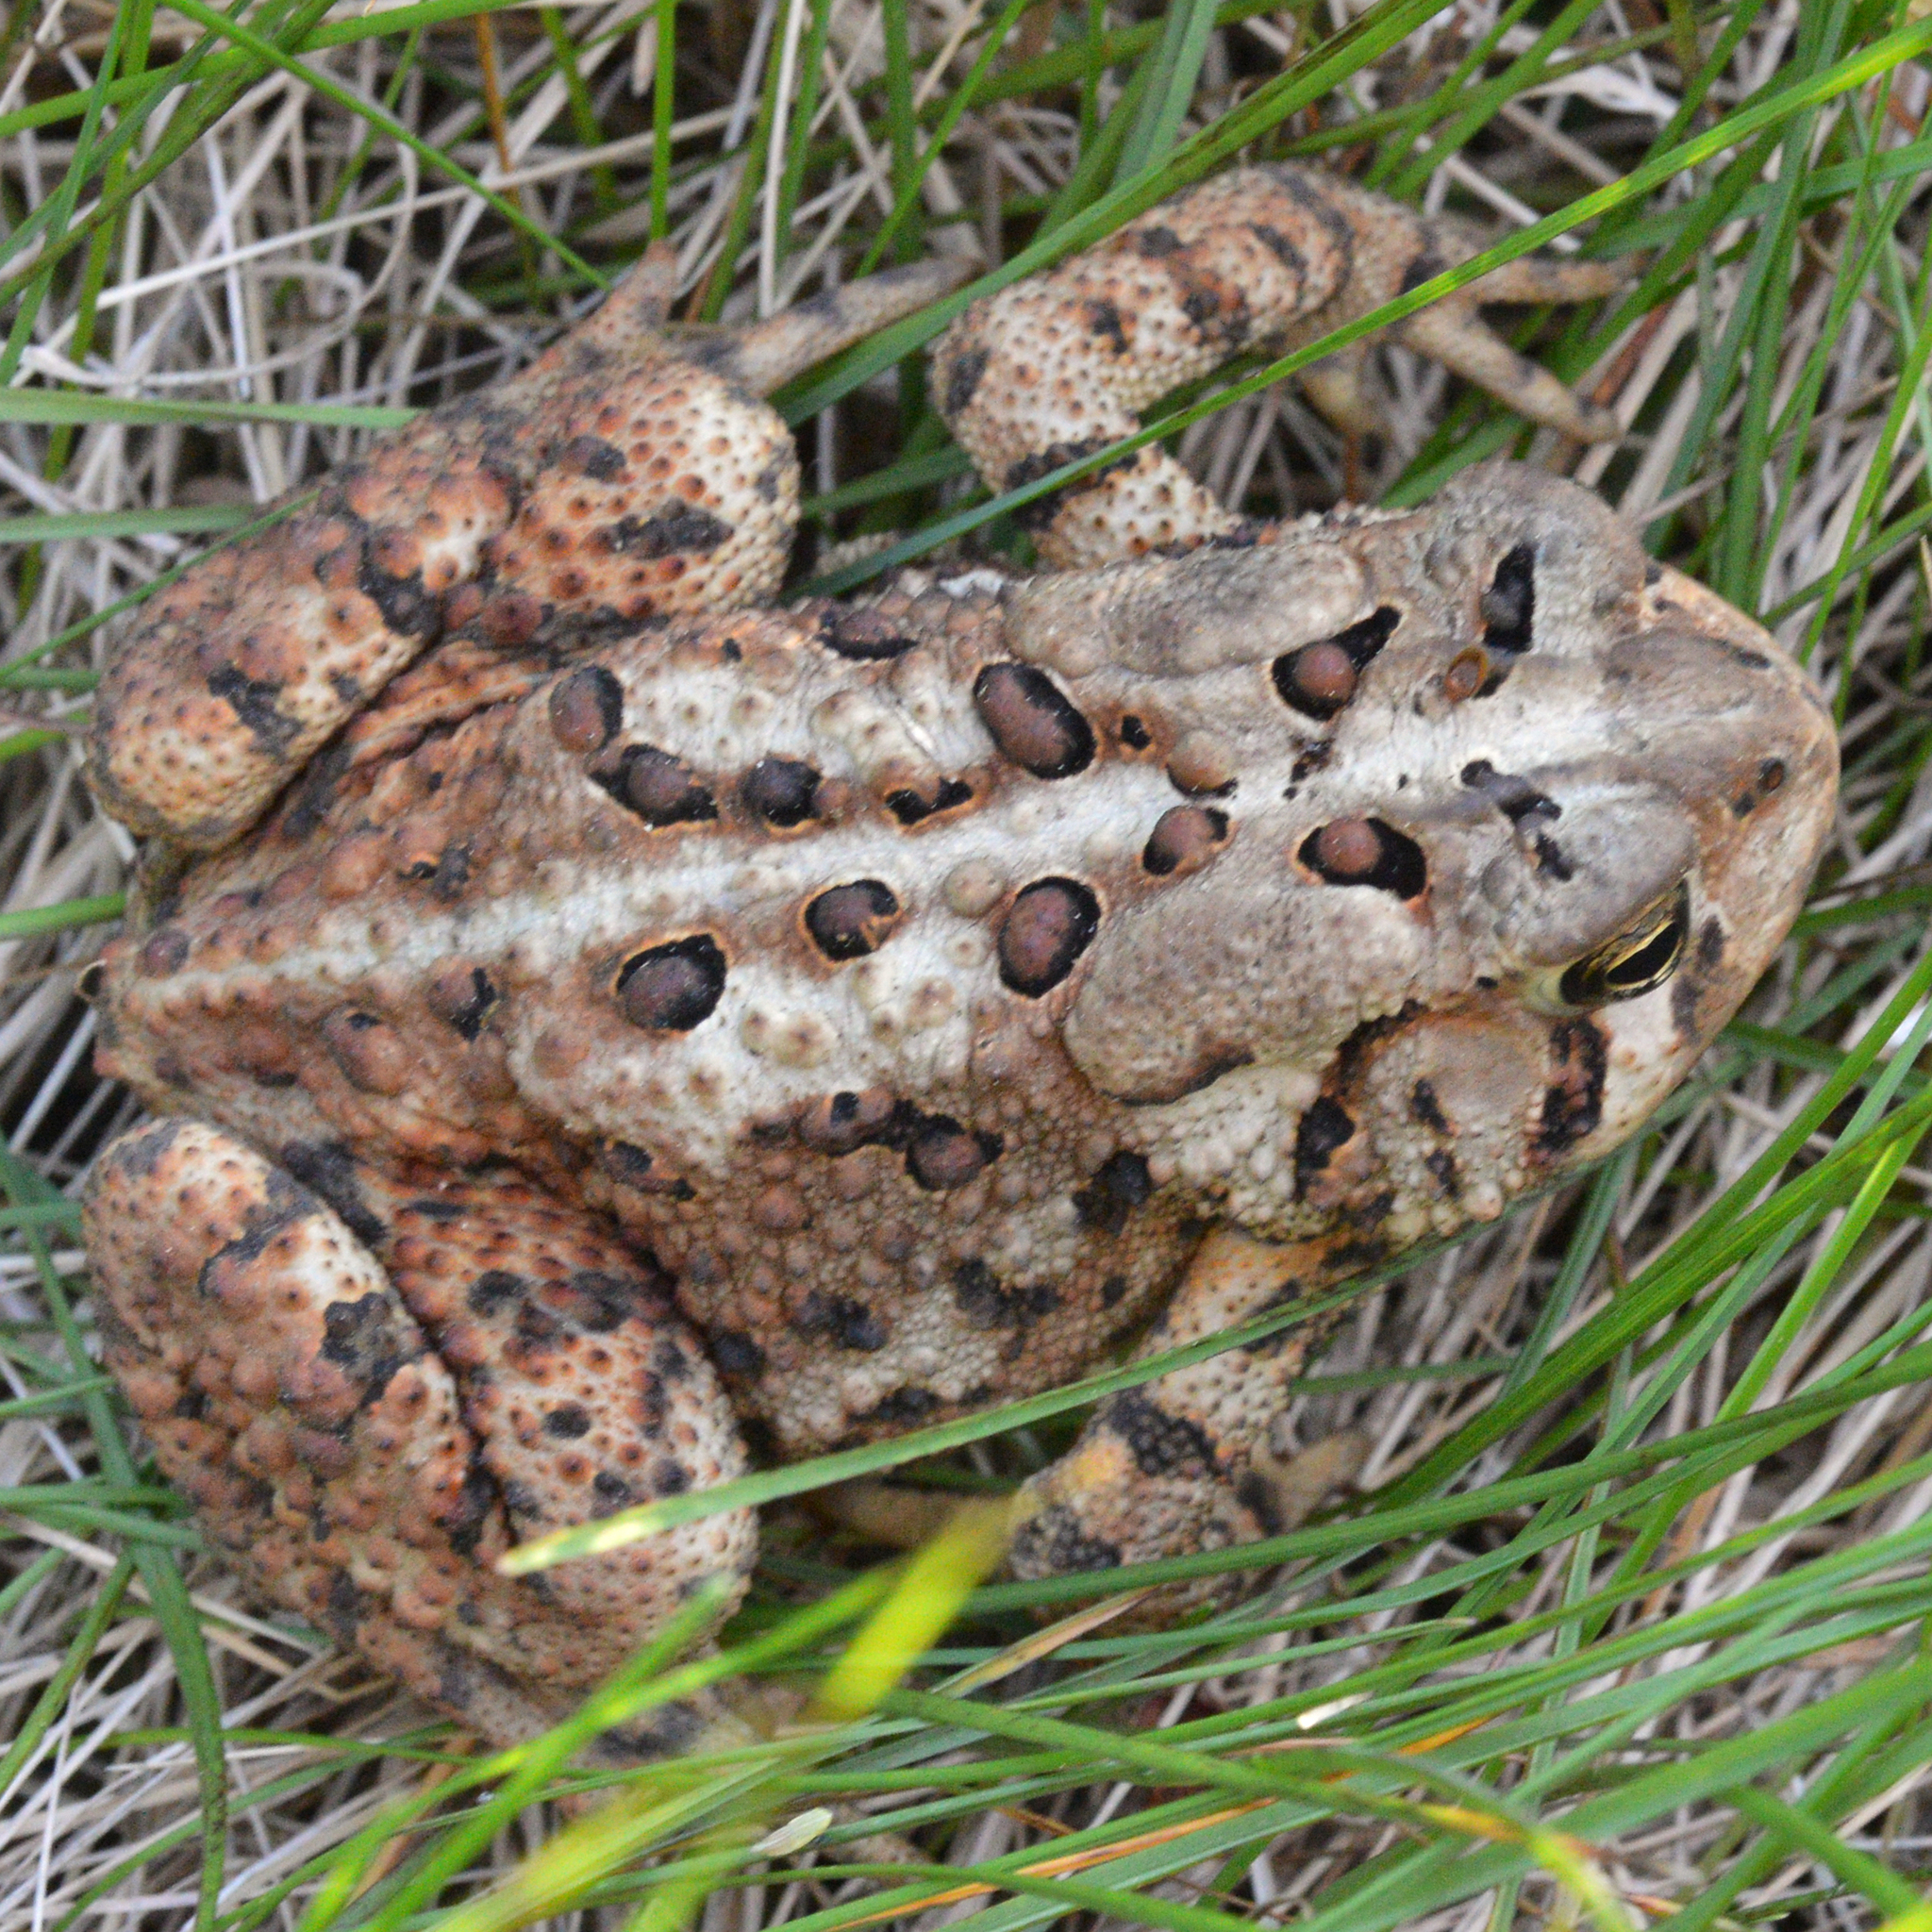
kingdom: Animalia
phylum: Chordata
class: Amphibia
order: Anura
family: Bufonidae
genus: Anaxyrus
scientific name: Anaxyrus americanus
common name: American toad
